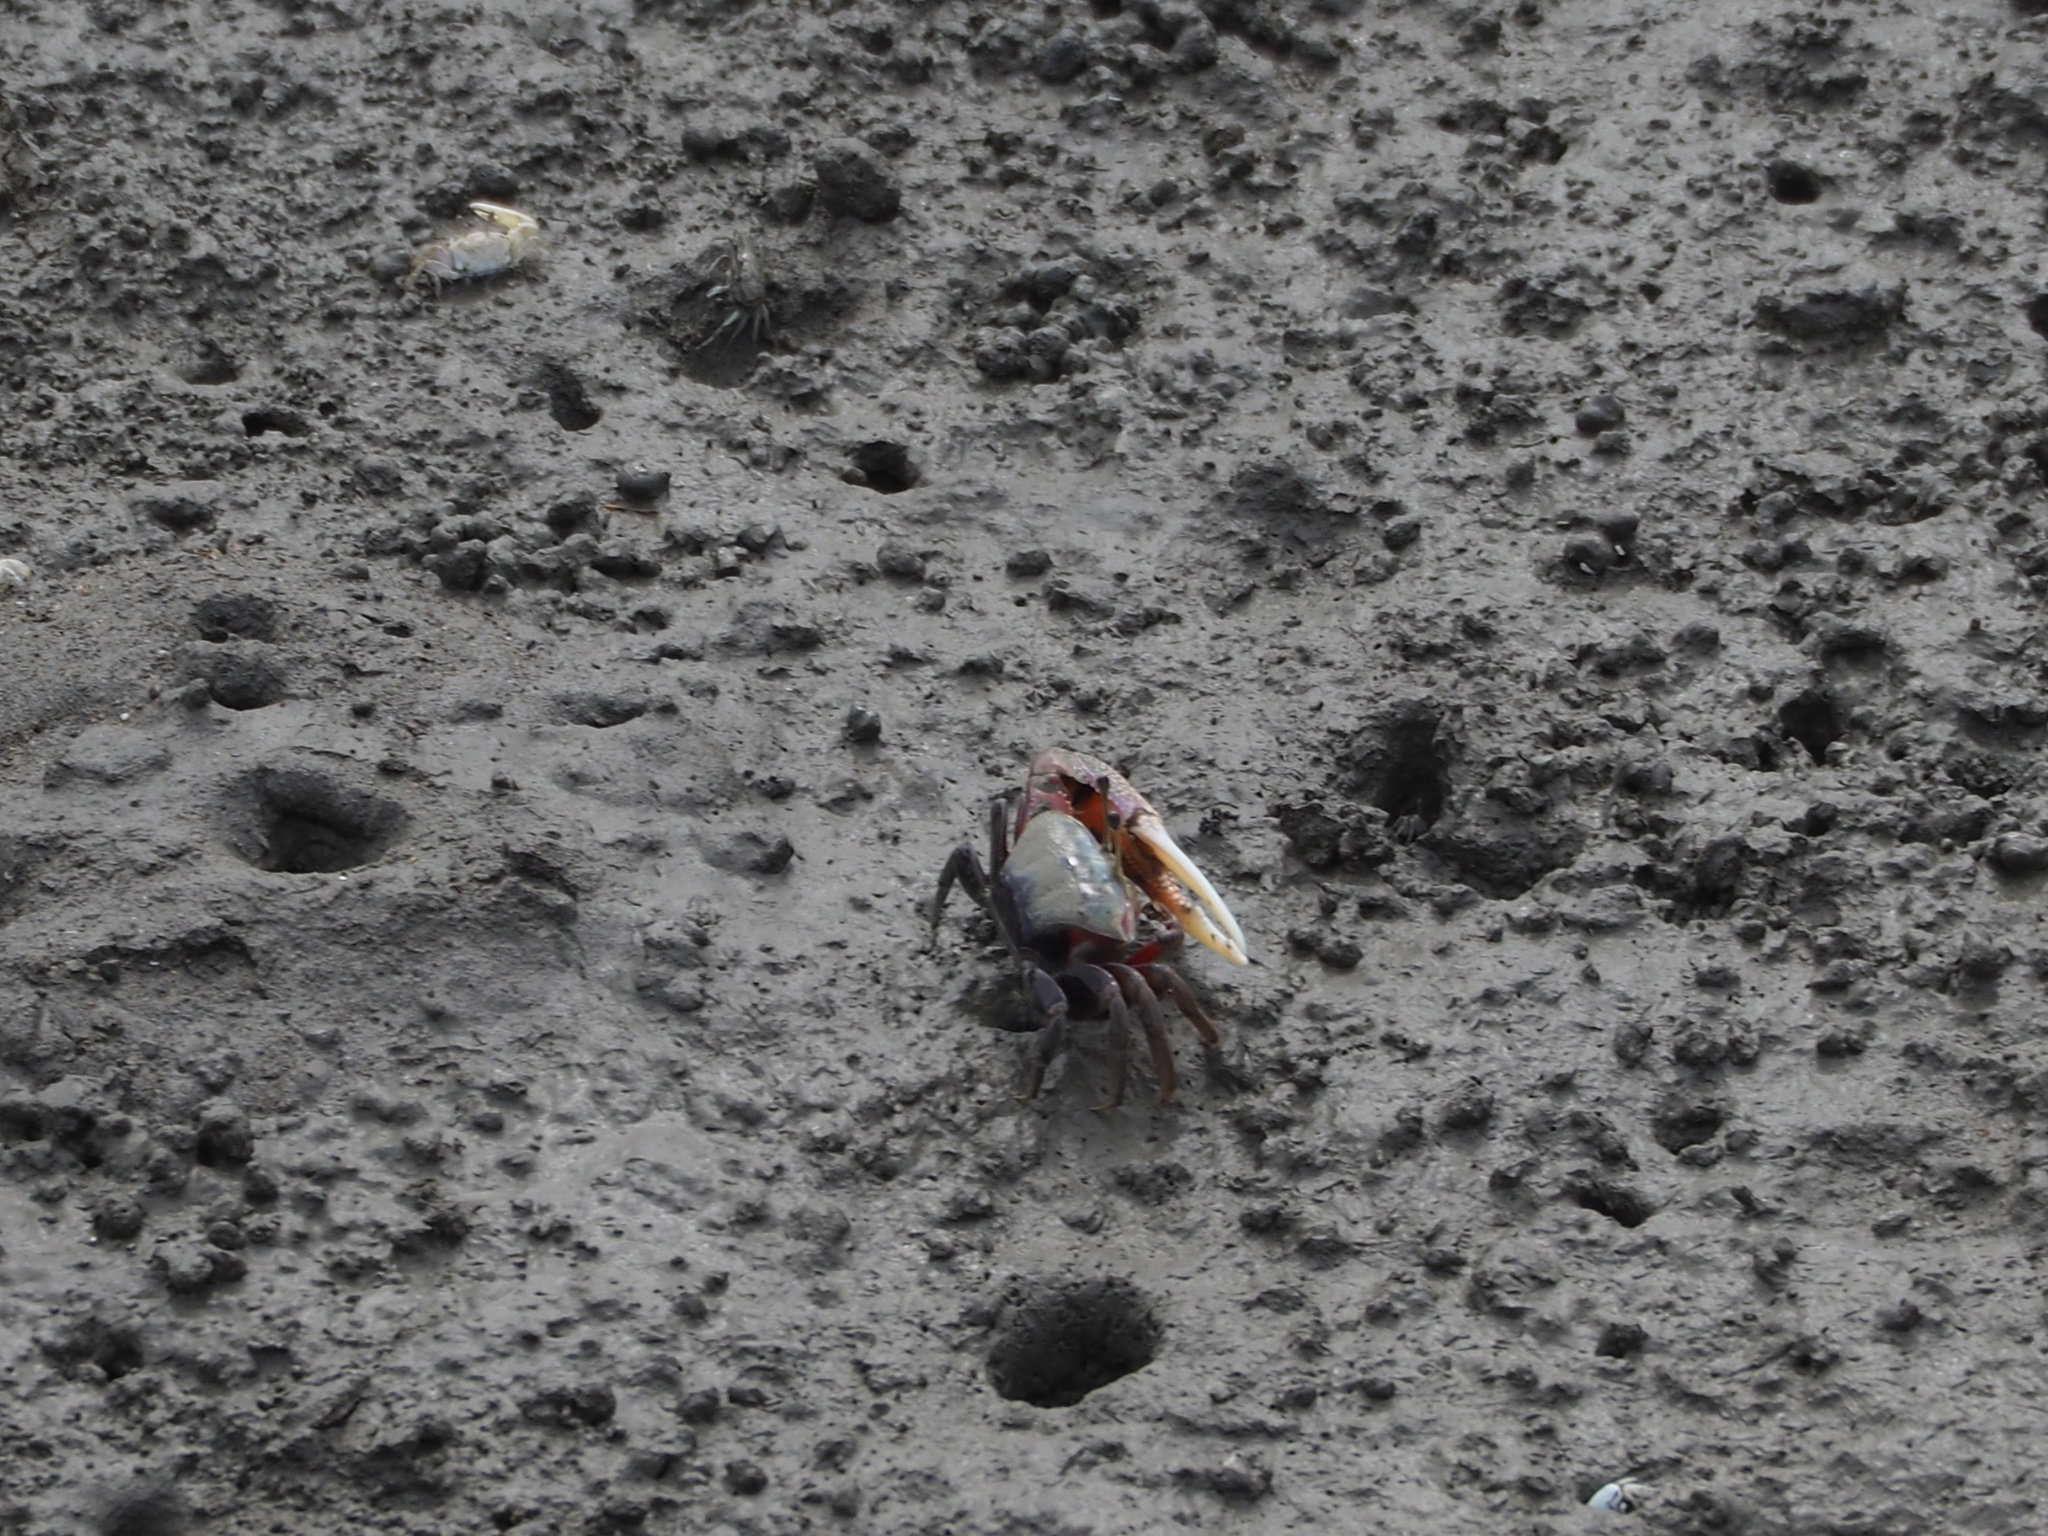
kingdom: Animalia
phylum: Arthropoda
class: Malacostraca
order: Decapoda
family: Ocypodidae
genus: Tubuca
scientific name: Tubuca arcuata
